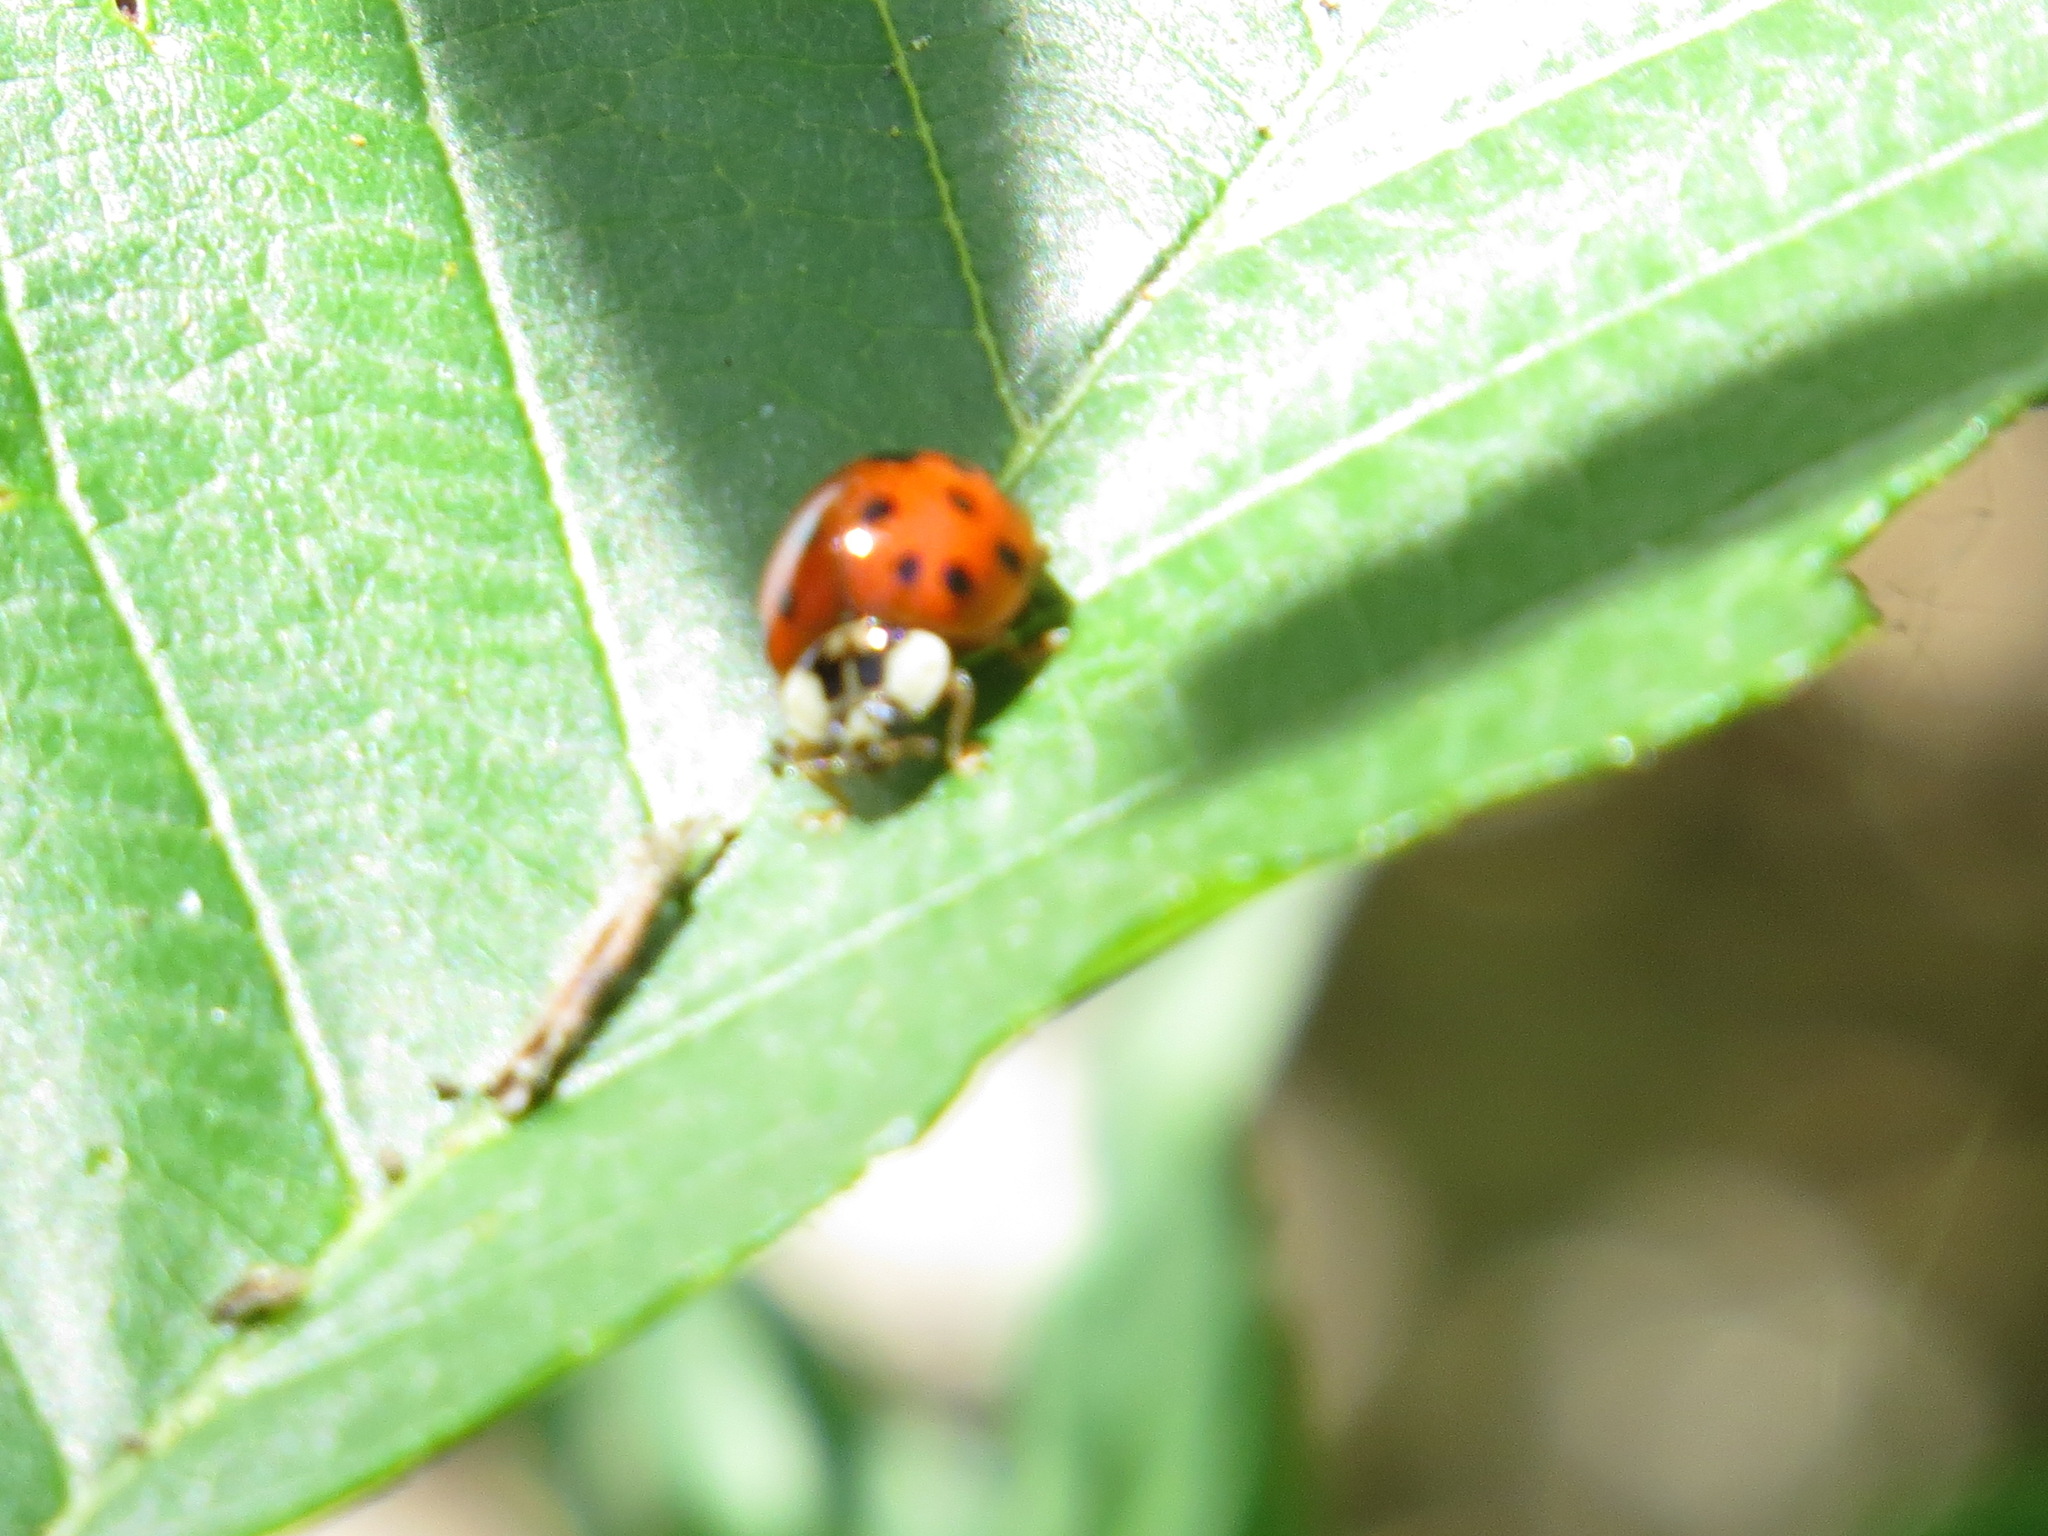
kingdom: Animalia
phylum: Arthropoda
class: Insecta
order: Coleoptera
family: Coccinellidae
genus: Harmonia
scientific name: Harmonia axyridis
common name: Harlequin ladybird
